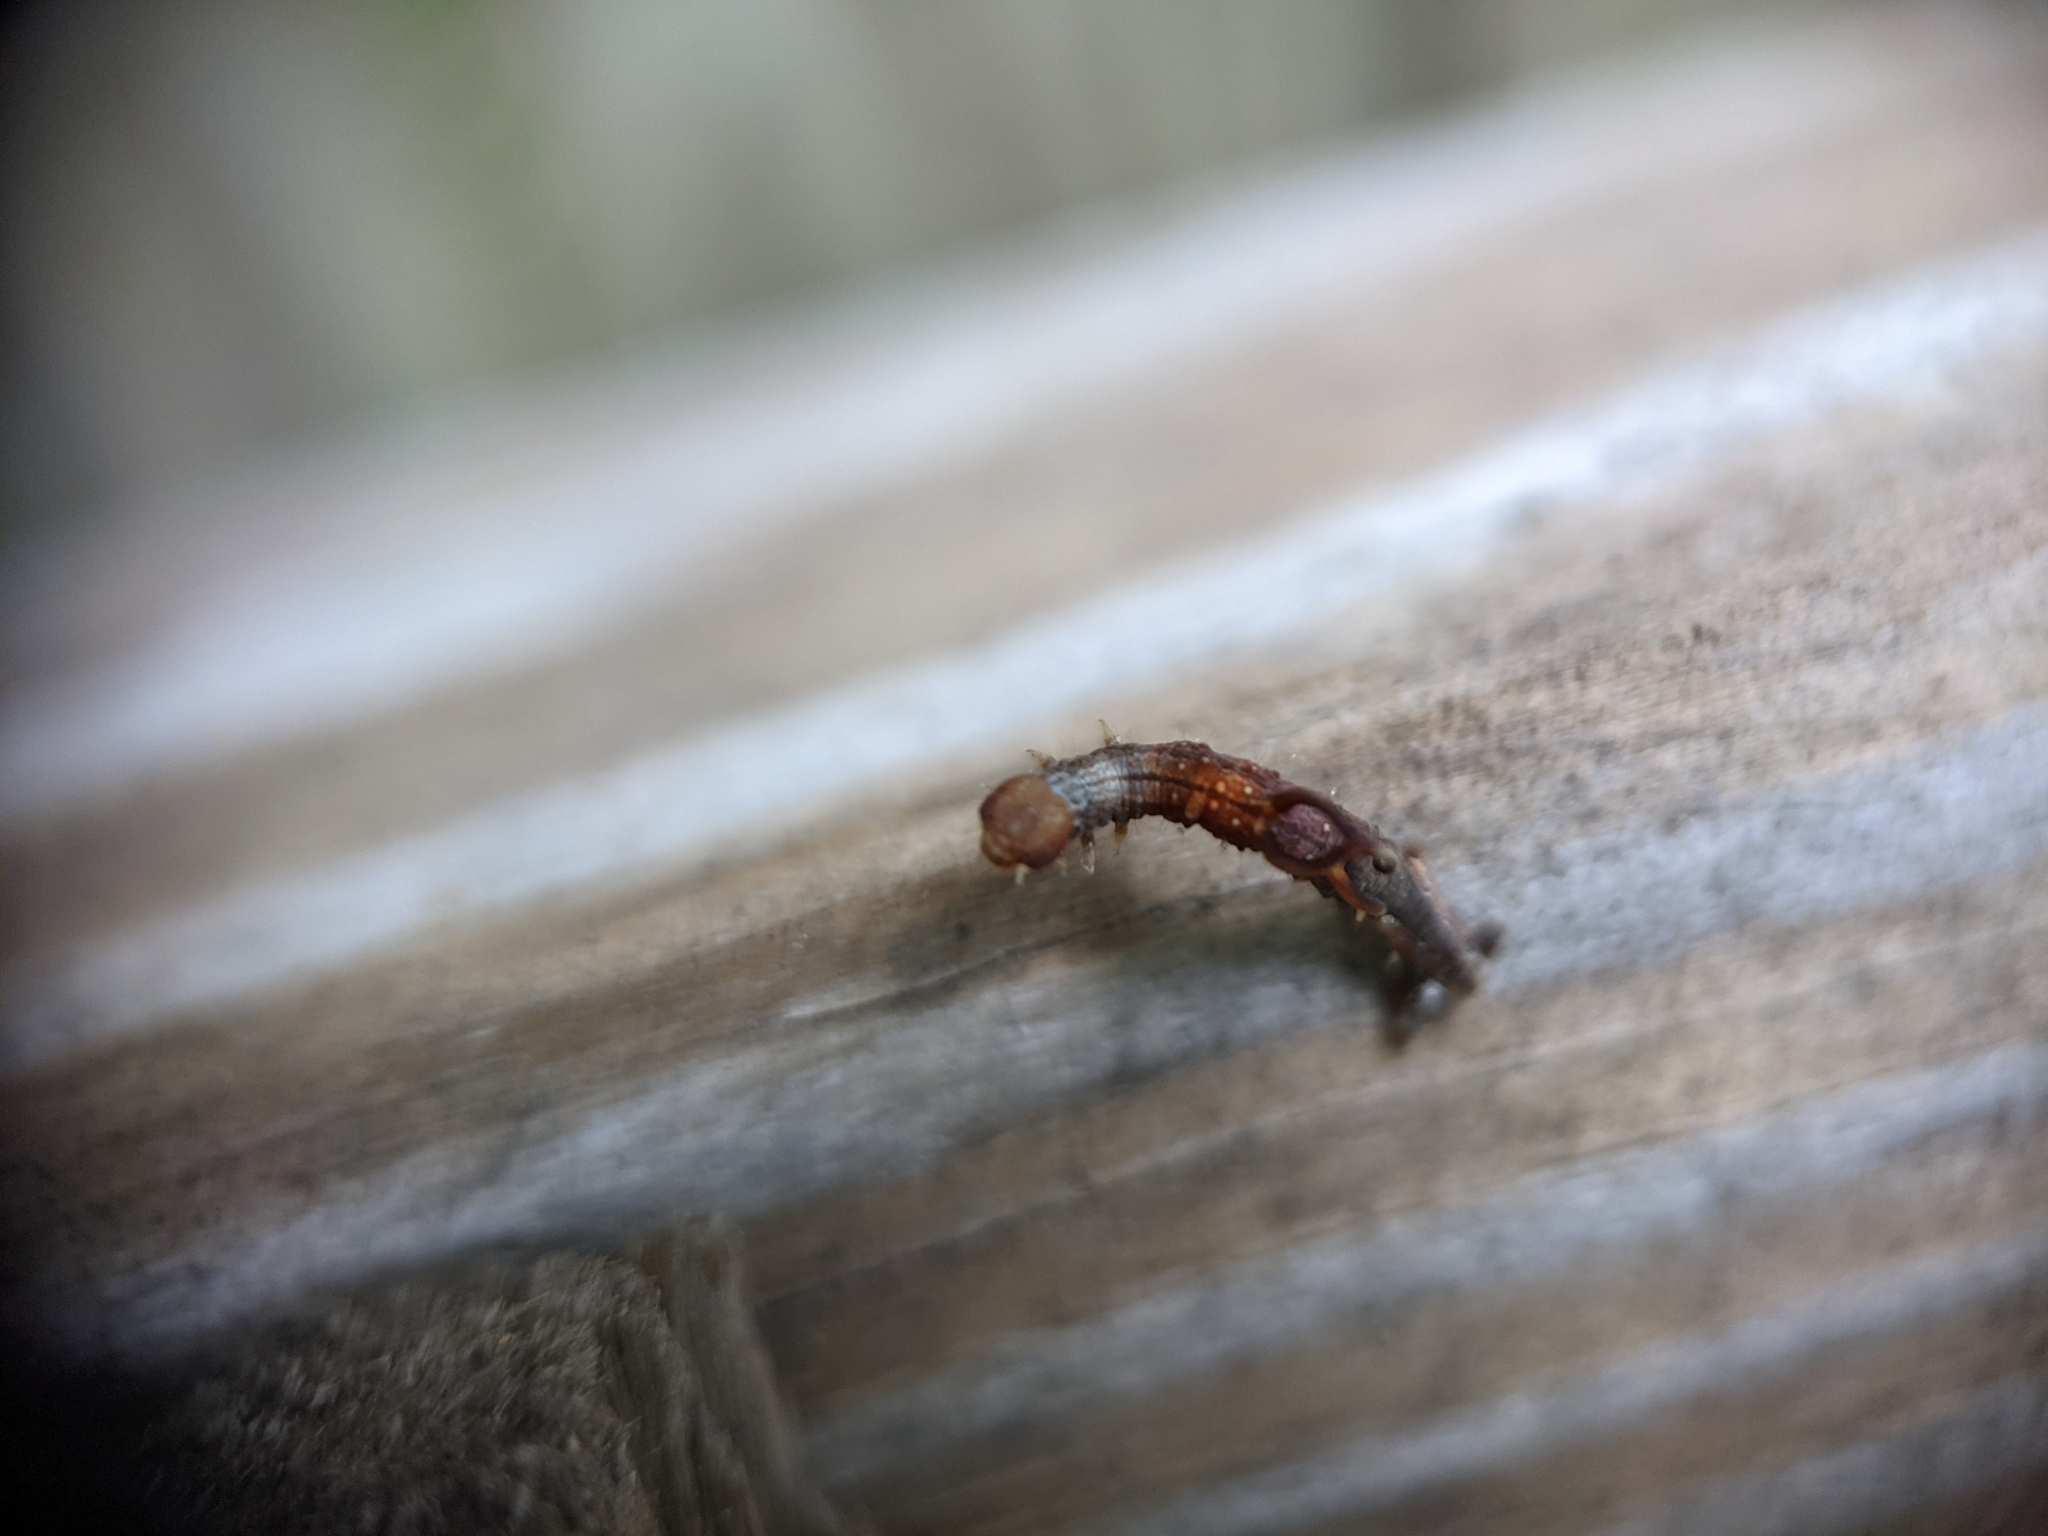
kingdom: Animalia
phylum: Arthropoda
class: Insecta
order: Lepidoptera
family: Geometridae
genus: Nematocampa
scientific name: Nematocampa resistaria
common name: Horned spanworm moth
